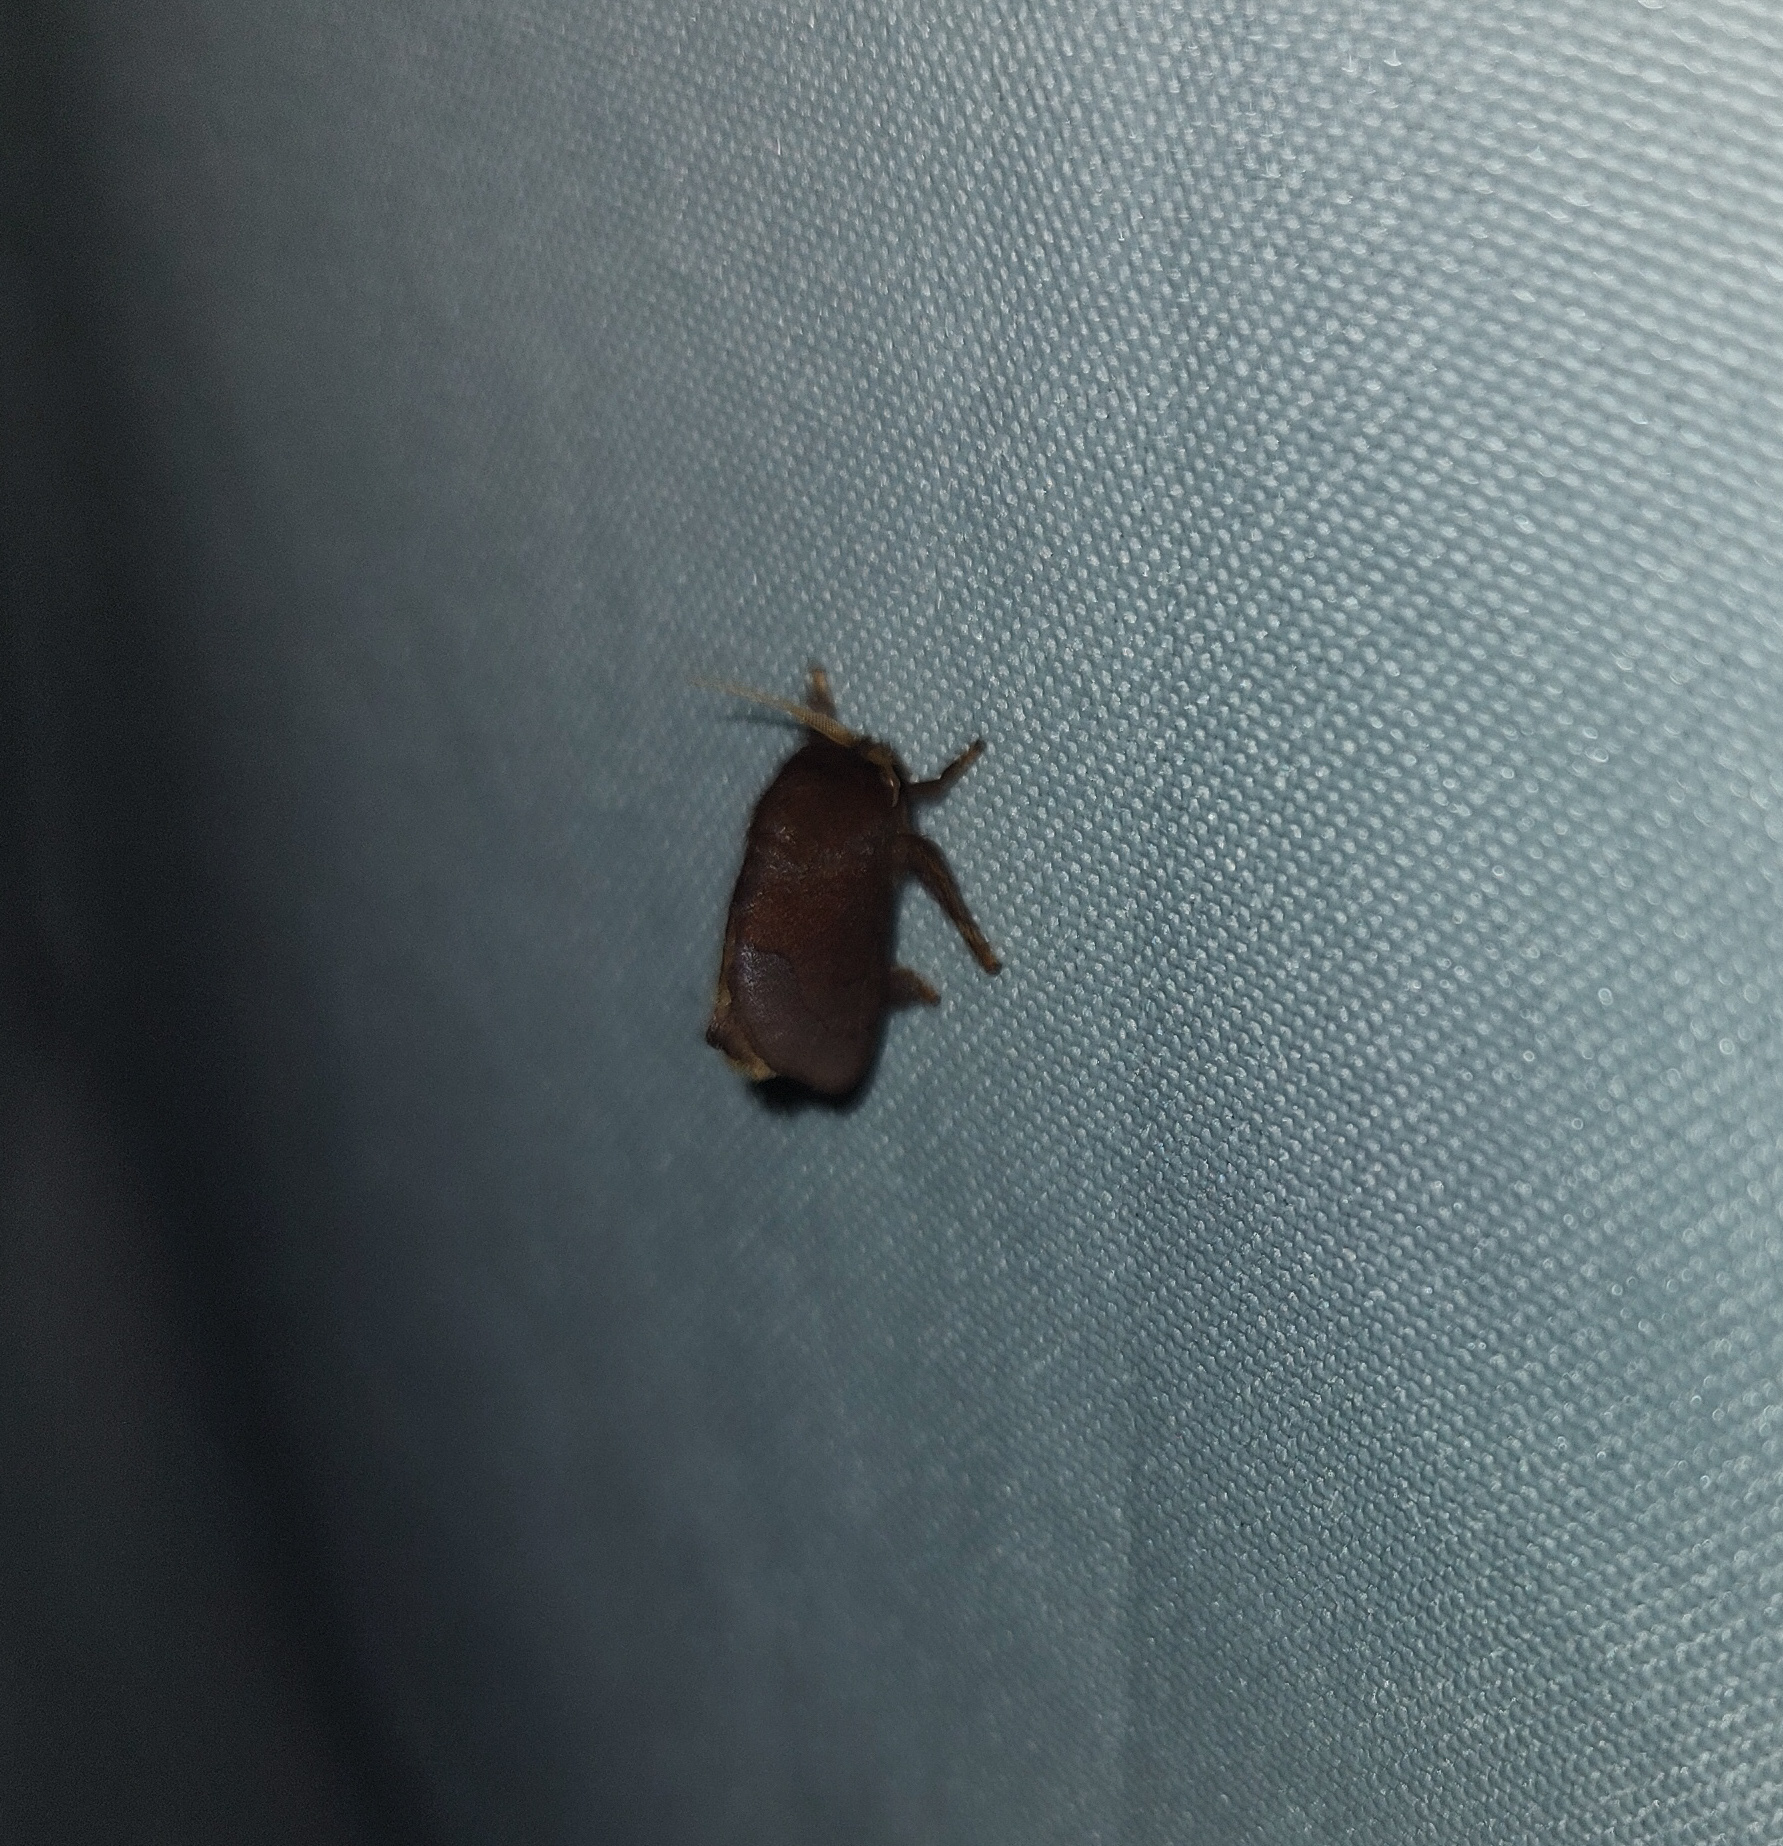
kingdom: Animalia
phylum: Arthropoda
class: Insecta
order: Lepidoptera
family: Limacodidae
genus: Talima
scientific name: Talima postica
